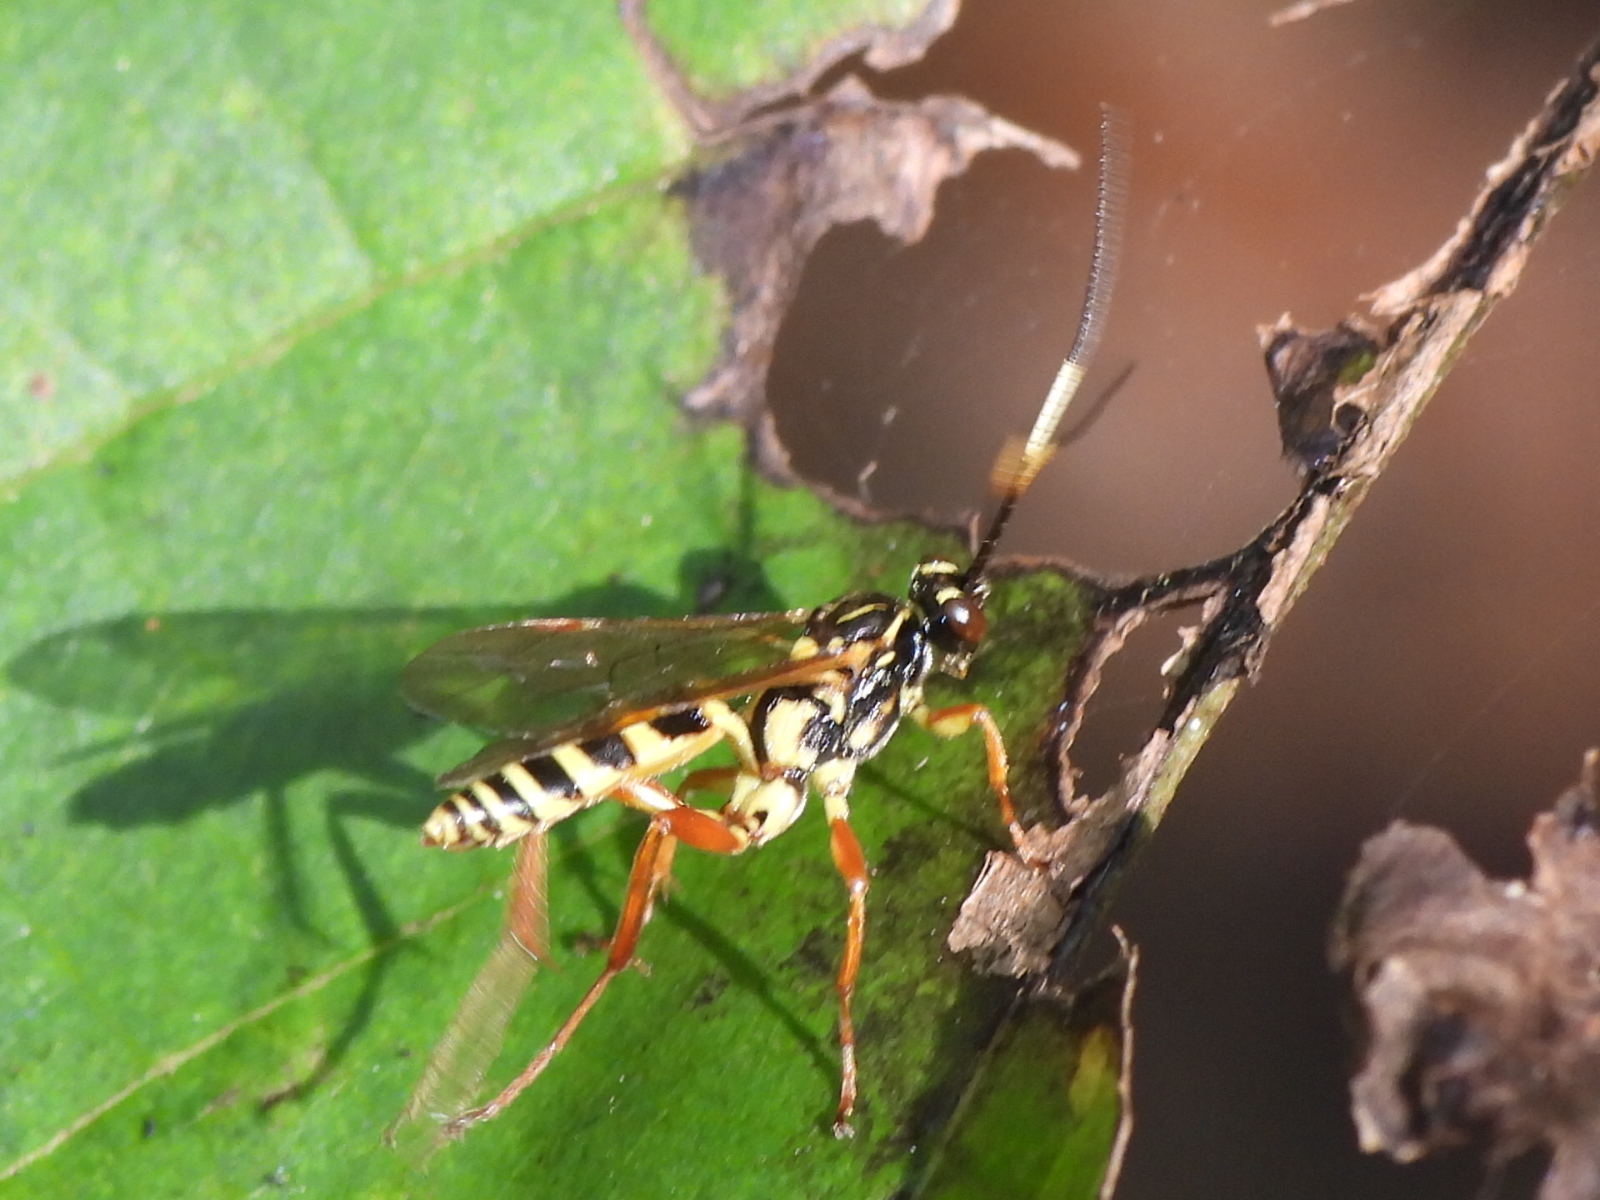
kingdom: Animalia
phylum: Arthropoda
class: Insecta
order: Hymenoptera
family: Ichneumonidae
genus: Setanta
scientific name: Setanta compta
